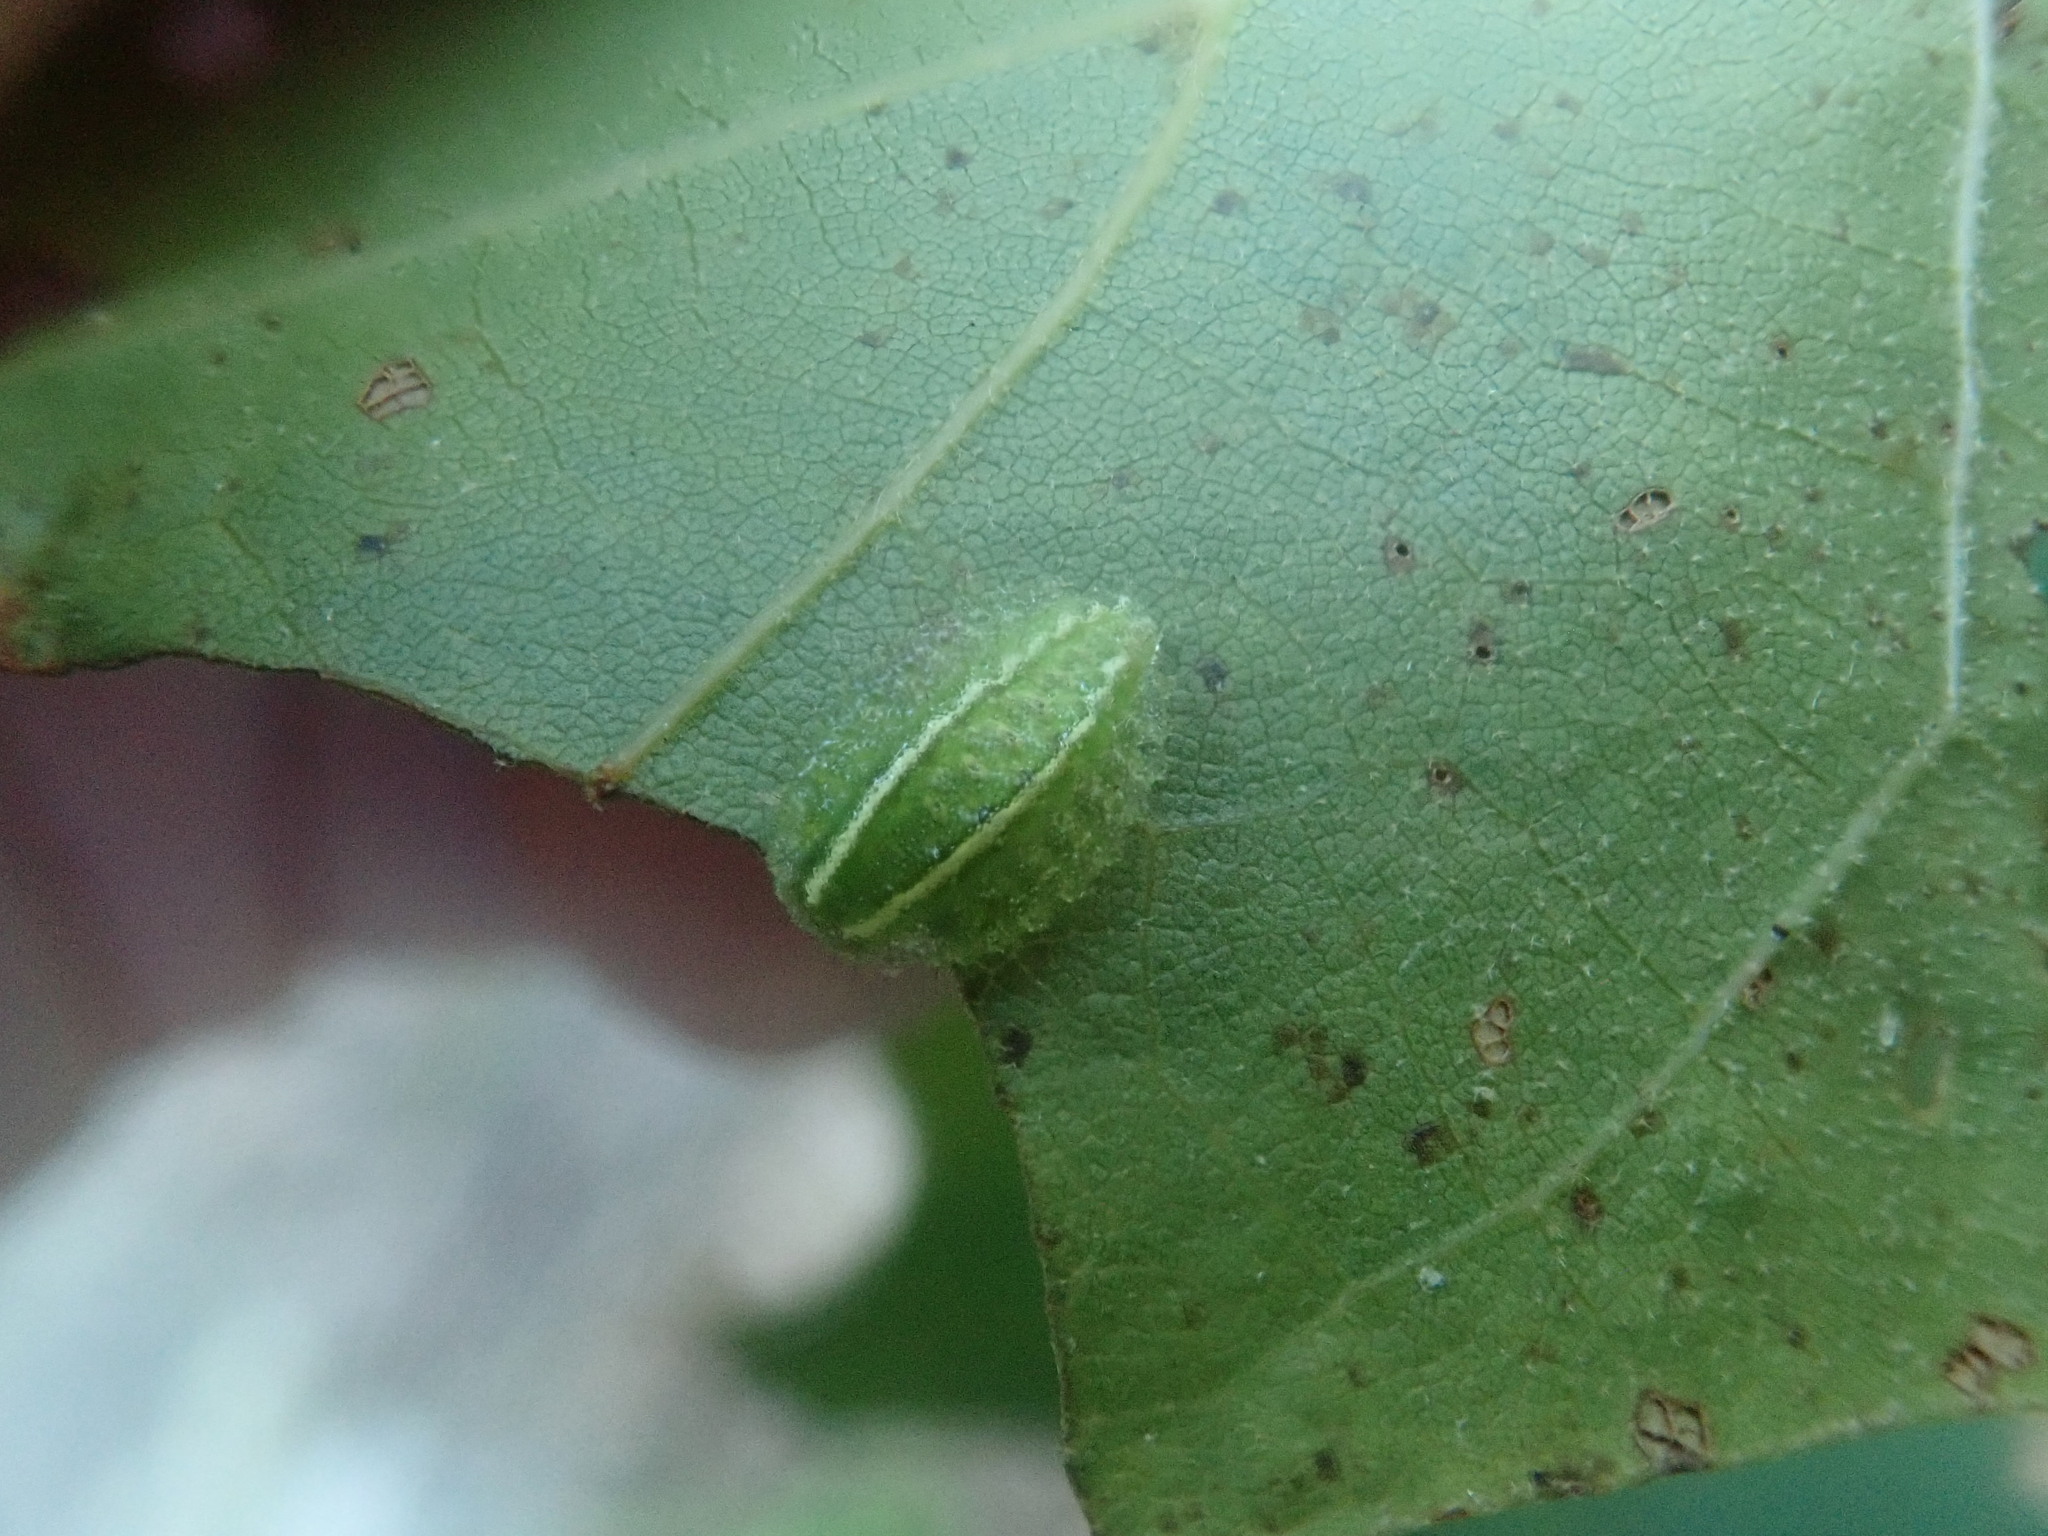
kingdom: Animalia
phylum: Arthropoda
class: Insecta
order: Lepidoptera
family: Limacodidae
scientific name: Limacodidae
